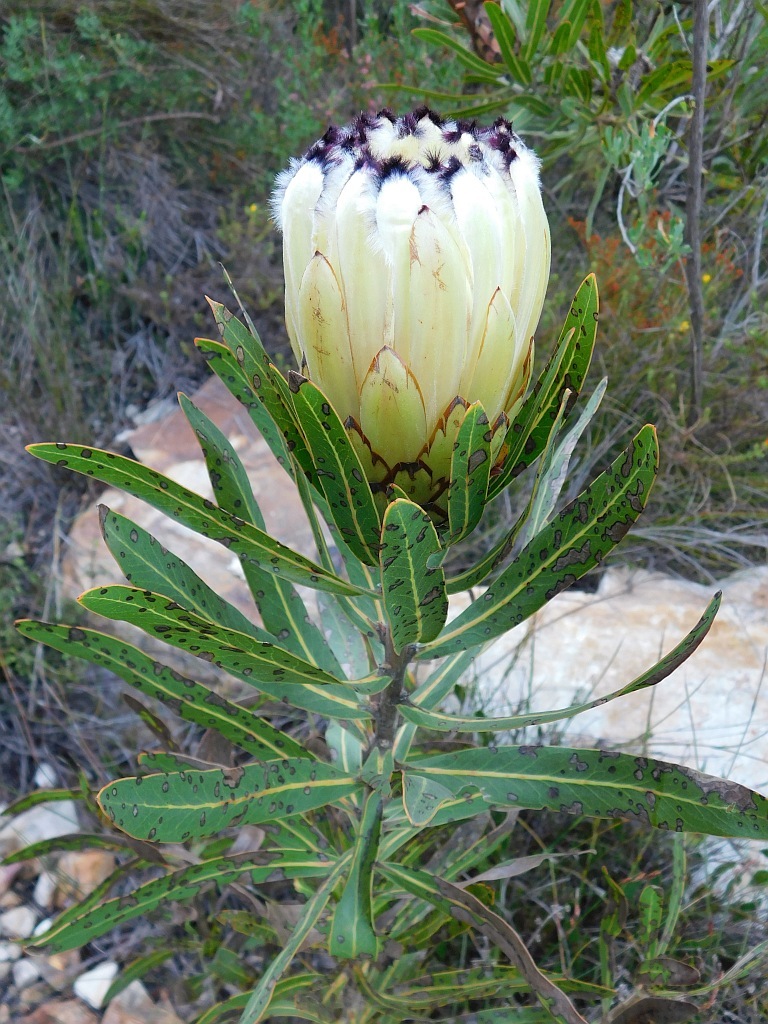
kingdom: Plantae
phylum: Tracheophyta
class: Magnoliopsida
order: Proteales
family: Proteaceae
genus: Protea
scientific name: Protea neriifolia
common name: Blue sugarbush
